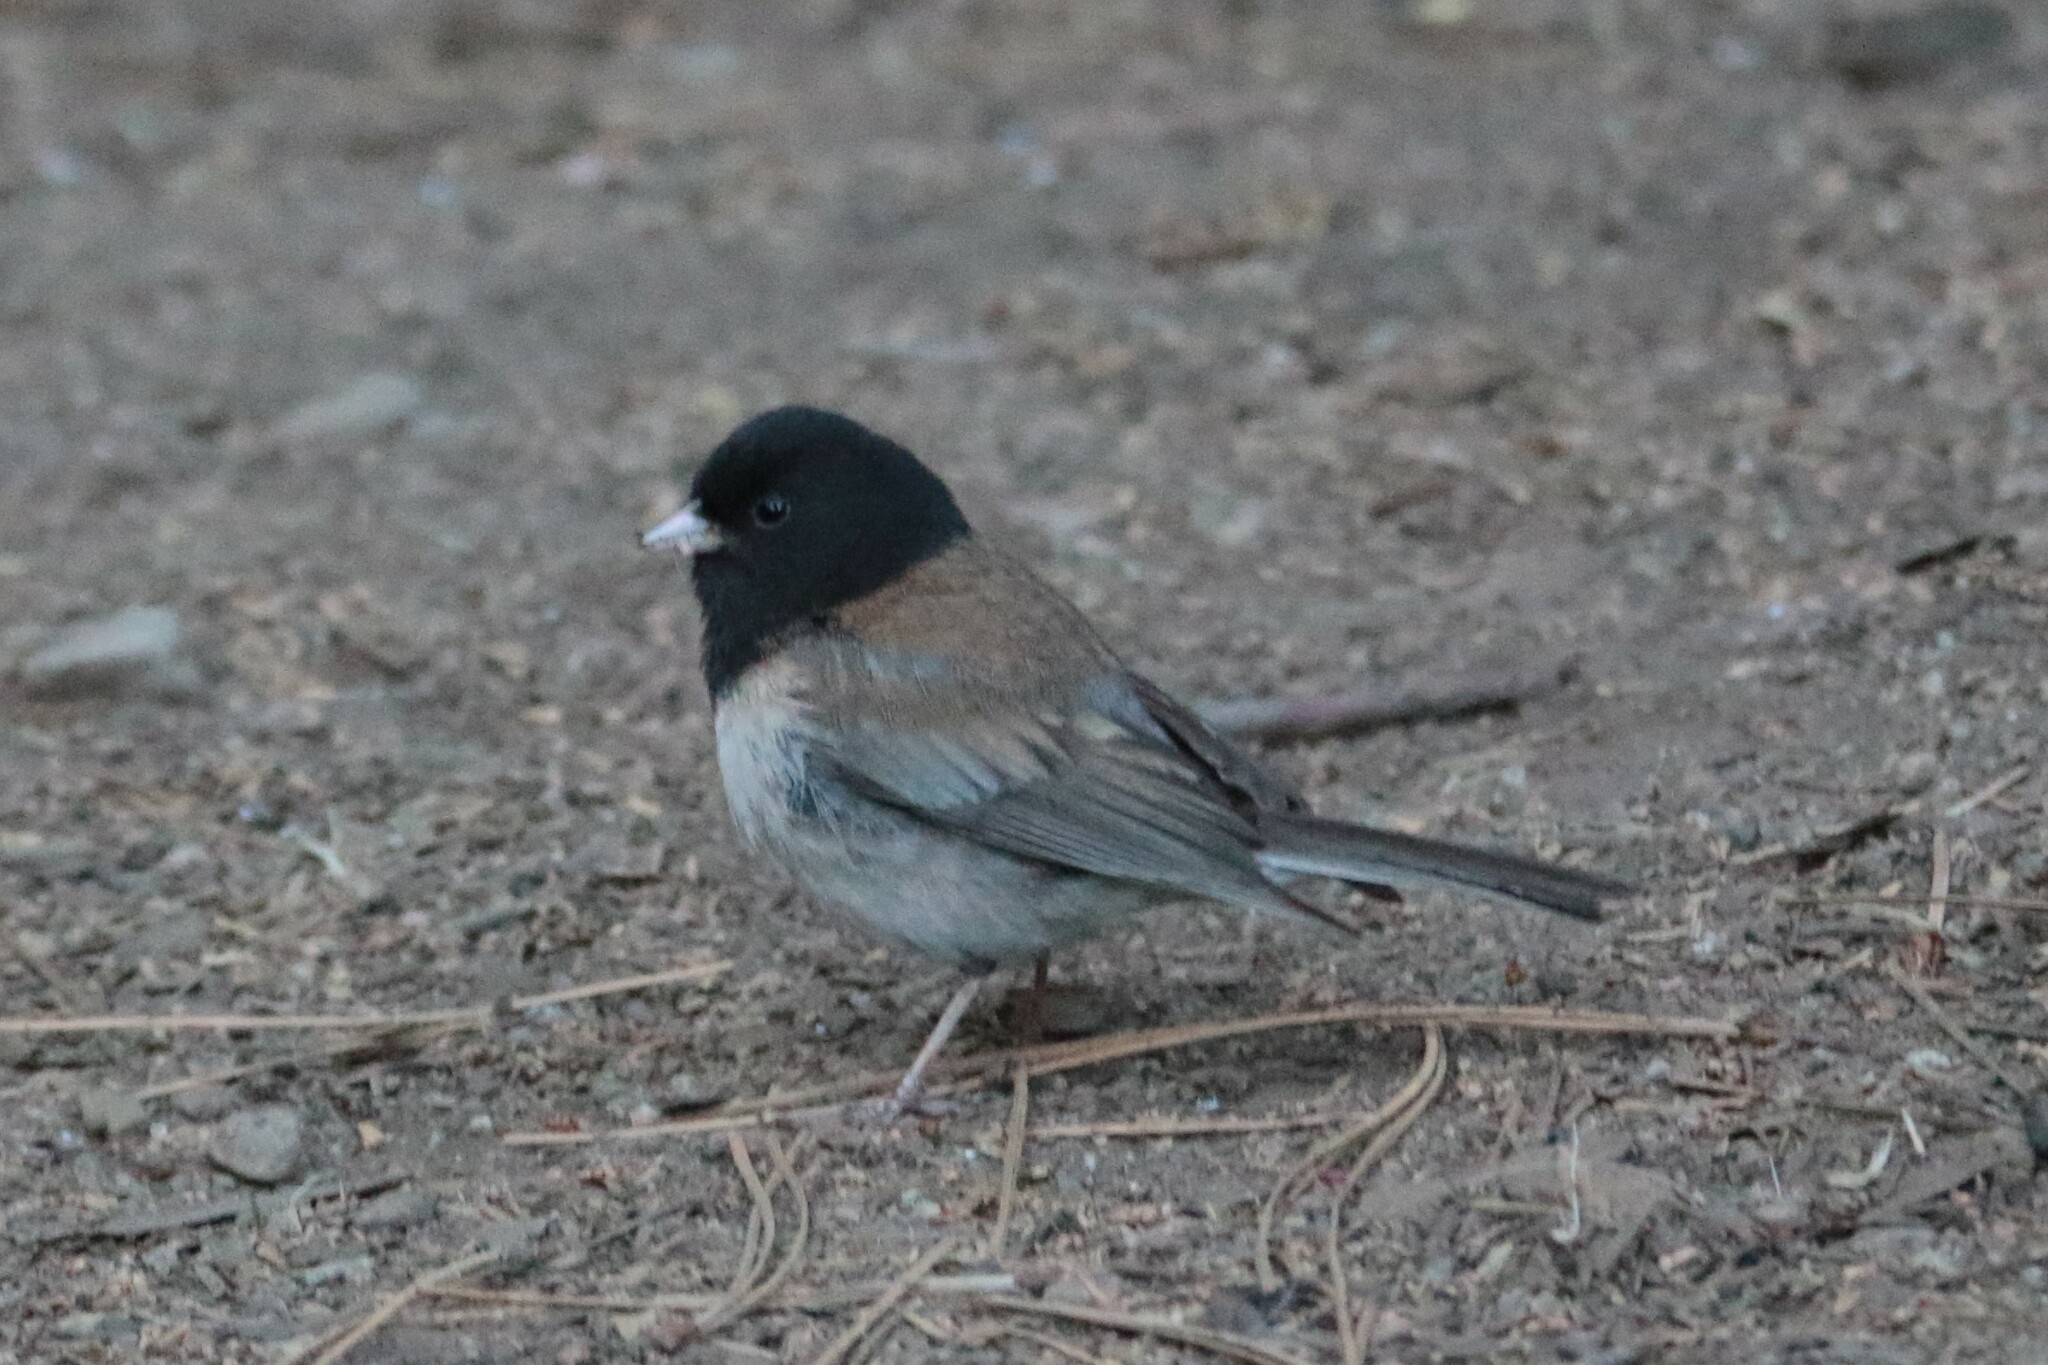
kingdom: Animalia
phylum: Chordata
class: Aves
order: Passeriformes
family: Passerellidae
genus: Junco
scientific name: Junco hyemalis
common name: Dark-eyed junco
